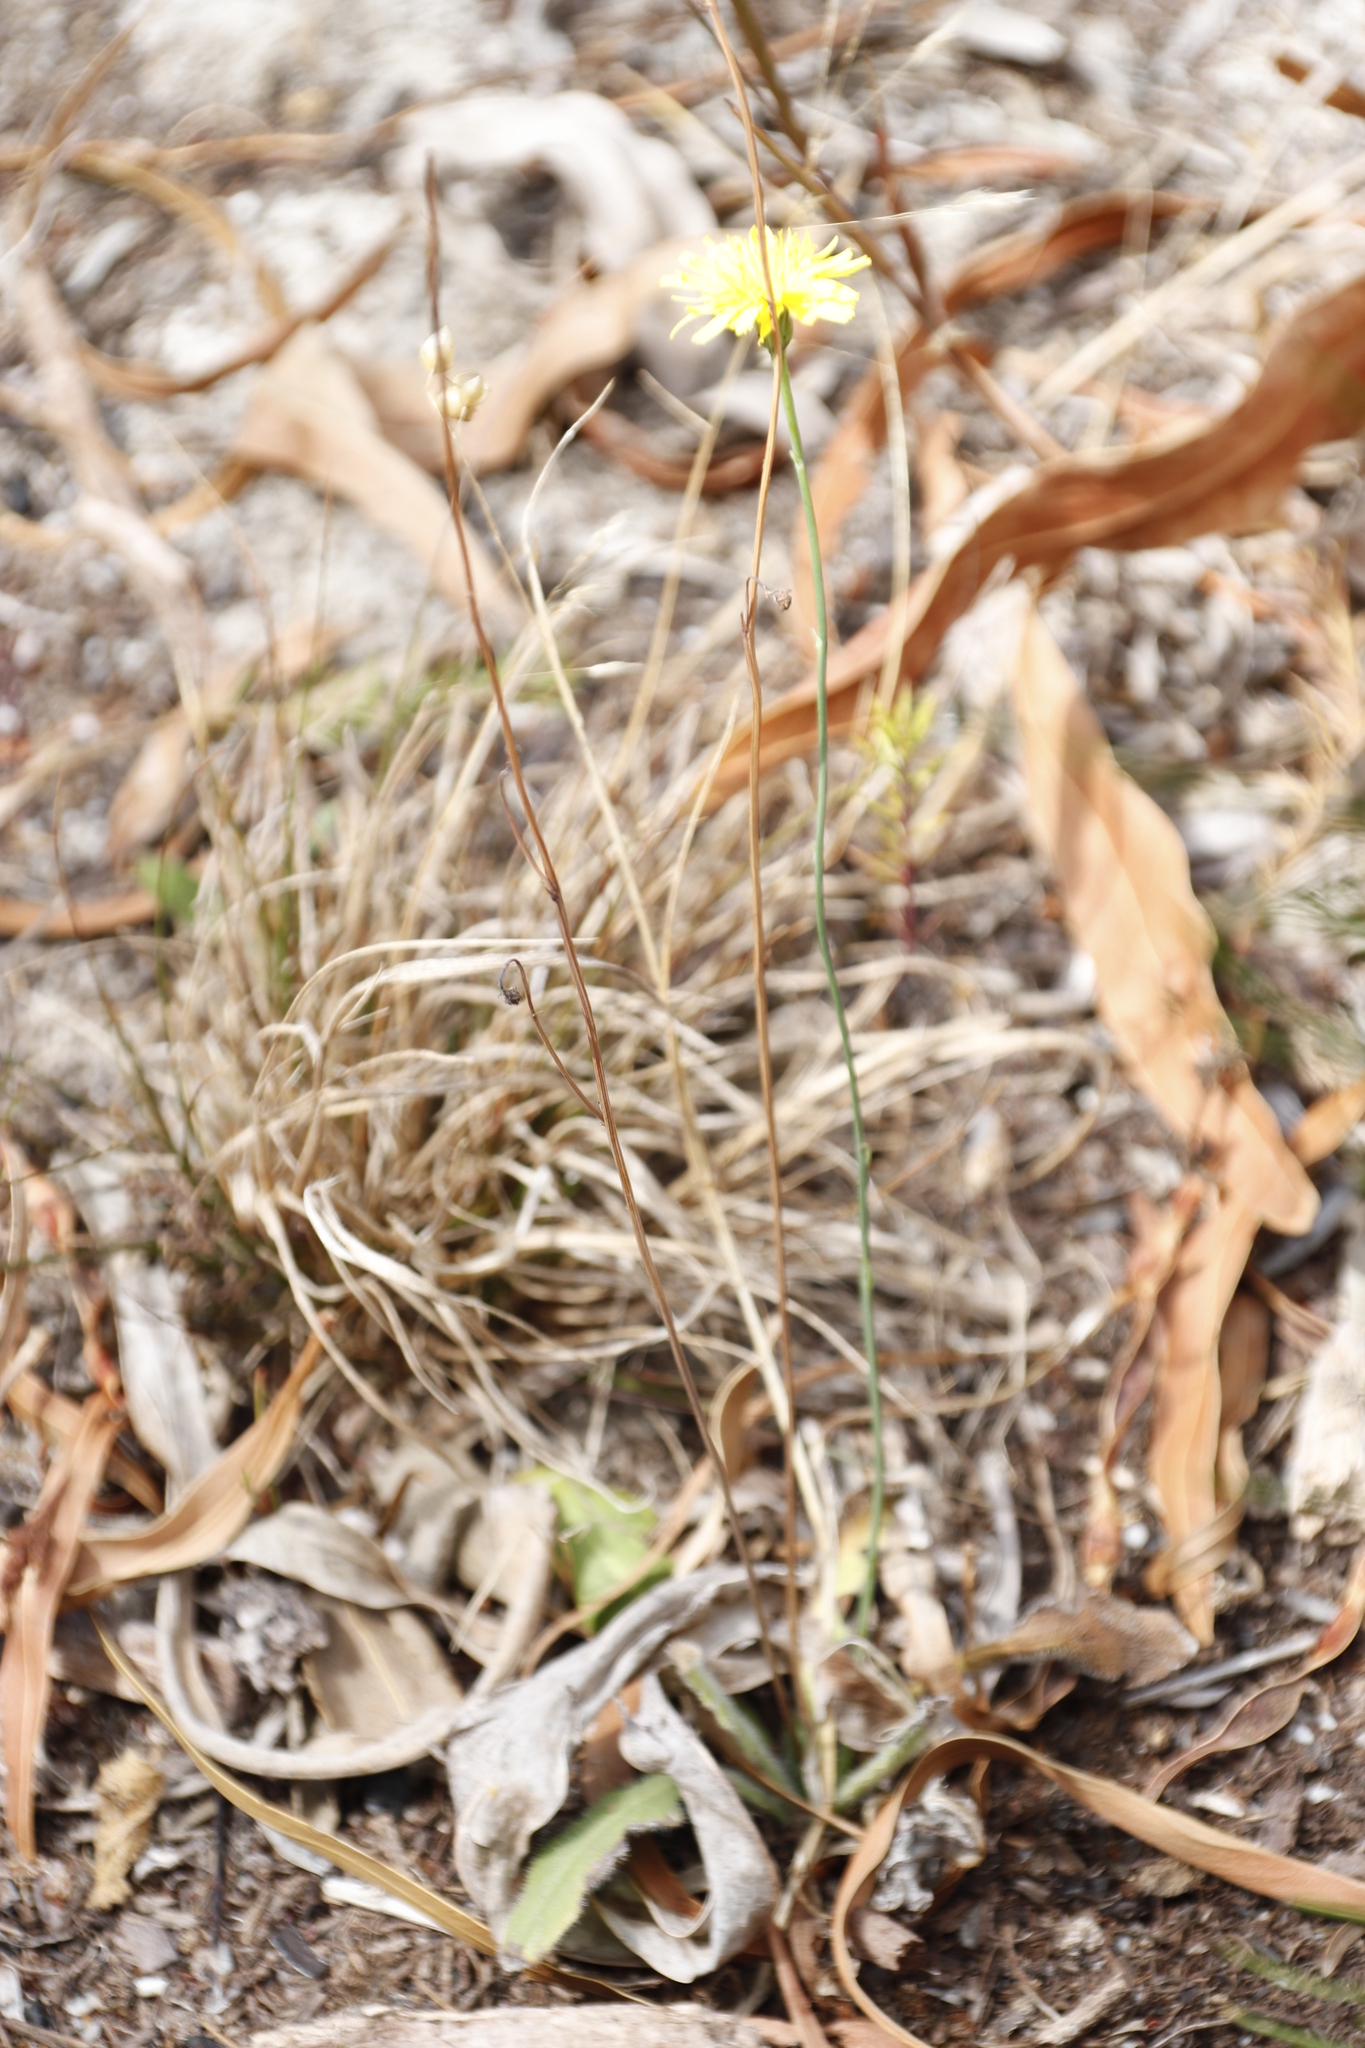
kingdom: Plantae
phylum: Tracheophyta
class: Magnoliopsida
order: Asterales
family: Asteraceae
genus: Hypochaeris
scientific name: Hypochaeris radicata
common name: Flatweed
